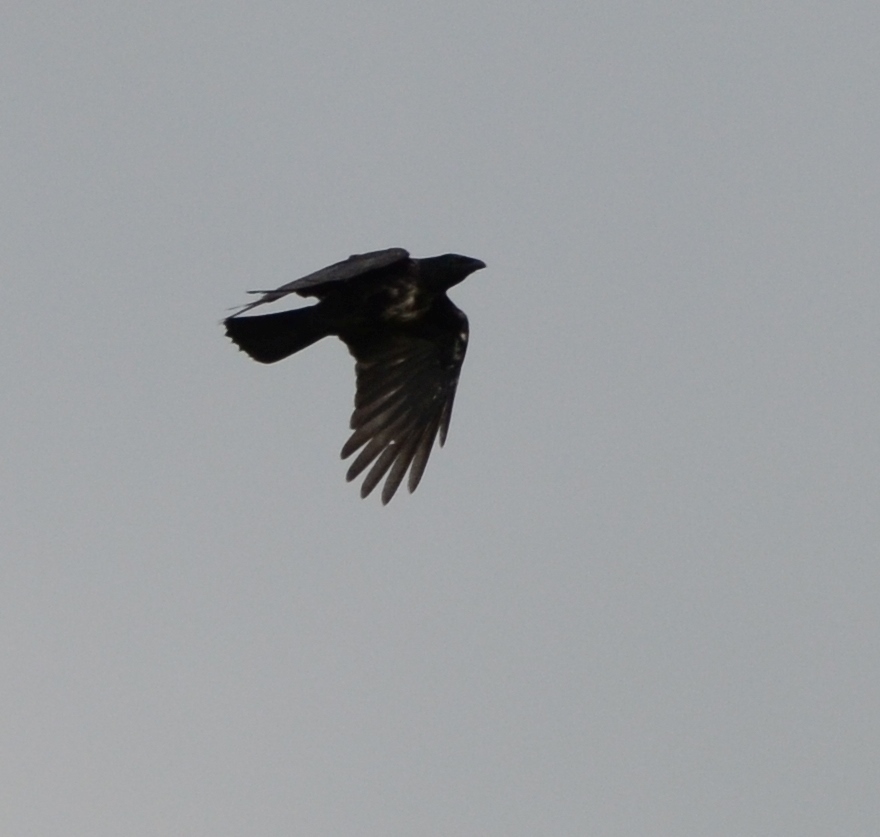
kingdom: Animalia
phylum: Chordata
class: Aves
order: Passeriformes
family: Corvidae
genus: Corvus
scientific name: Corvus
